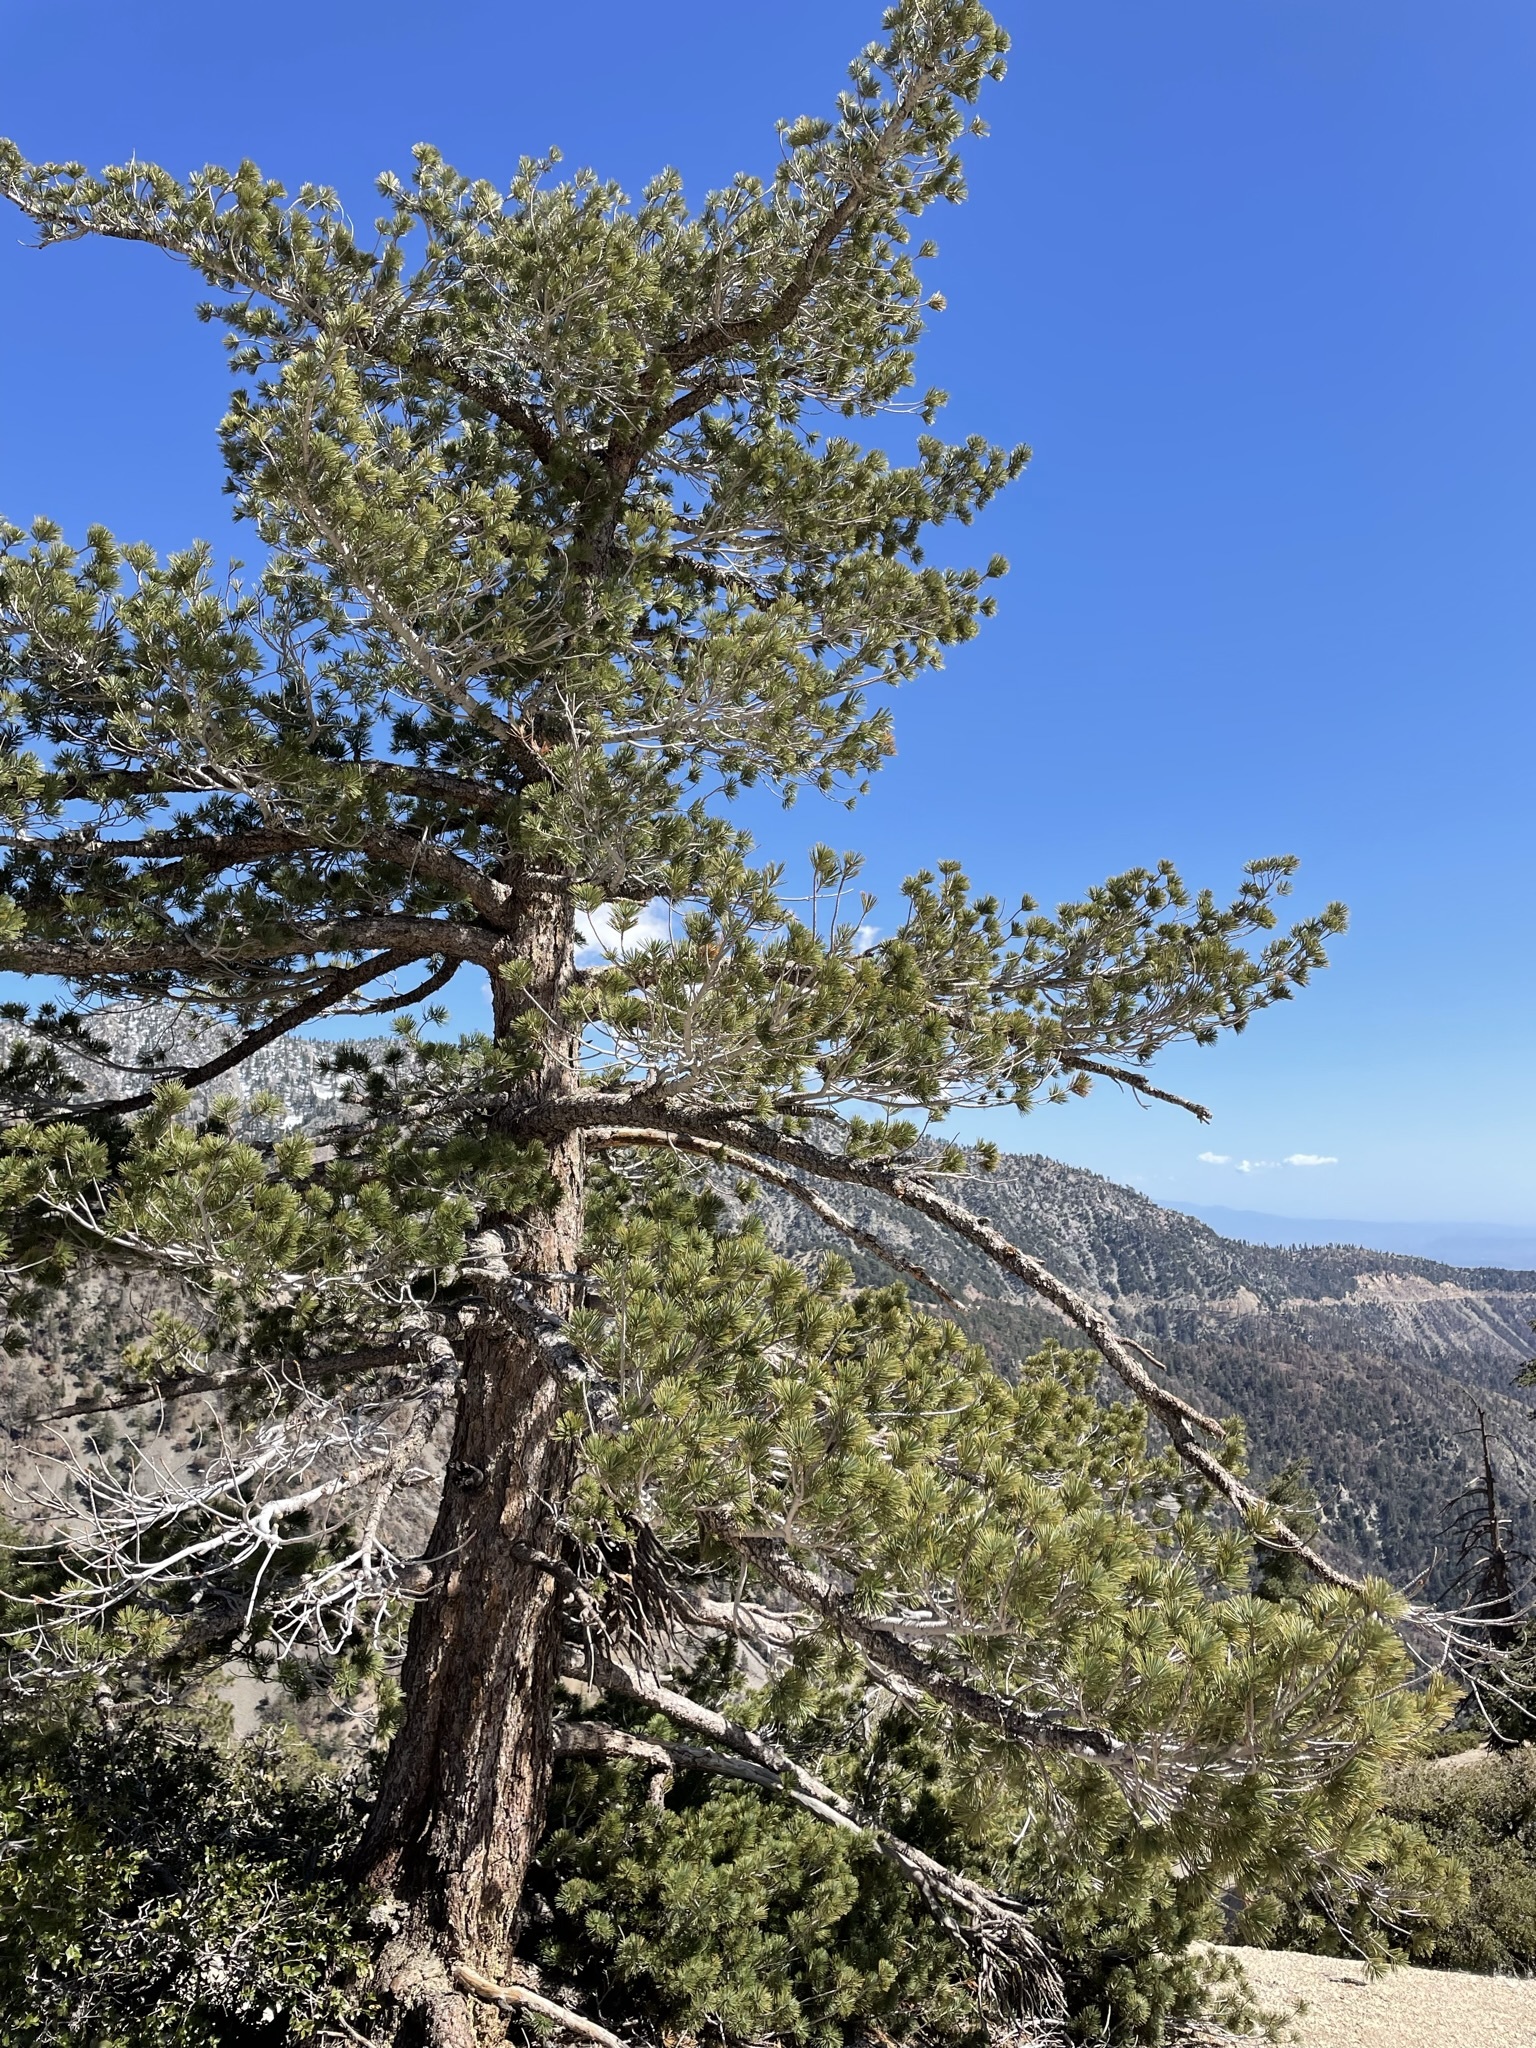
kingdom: Plantae
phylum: Tracheophyta
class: Pinopsida
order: Pinales
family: Pinaceae
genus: Pinus
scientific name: Pinus lambertiana
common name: Sugar pine
